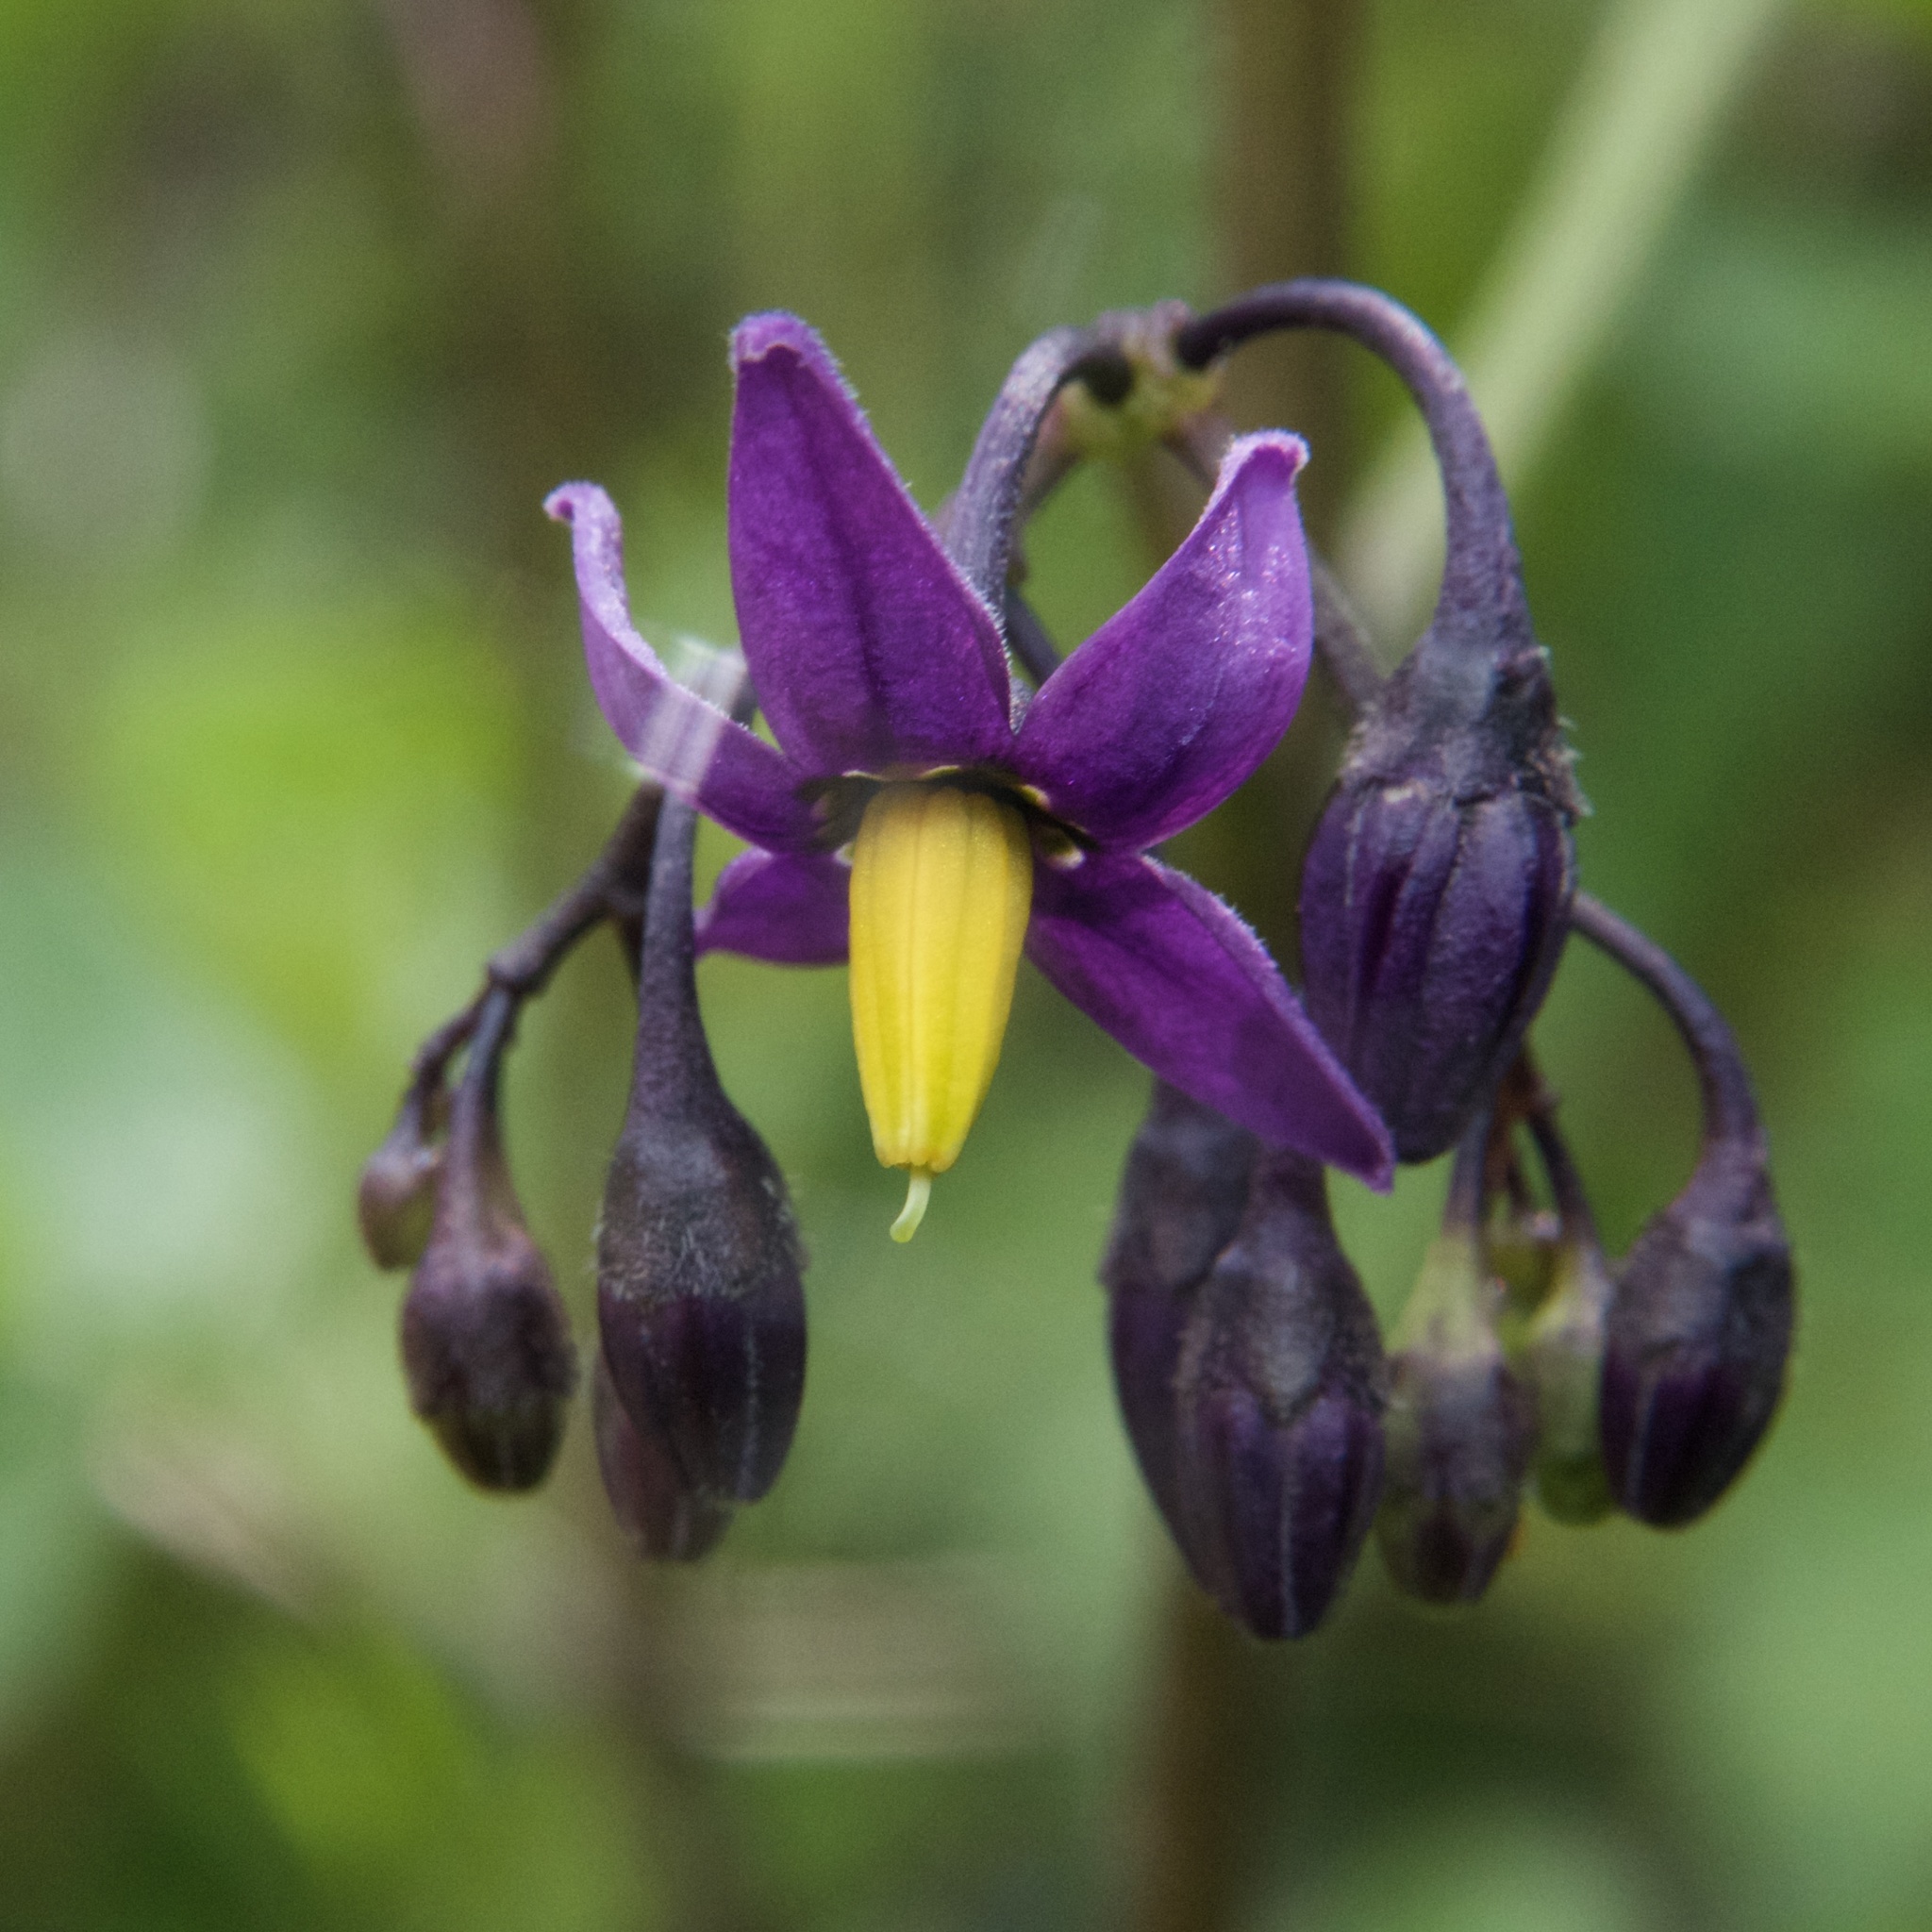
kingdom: Plantae
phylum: Tracheophyta
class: Magnoliopsida
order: Solanales
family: Solanaceae
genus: Solanum
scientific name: Solanum dulcamara
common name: Climbing nightshade
